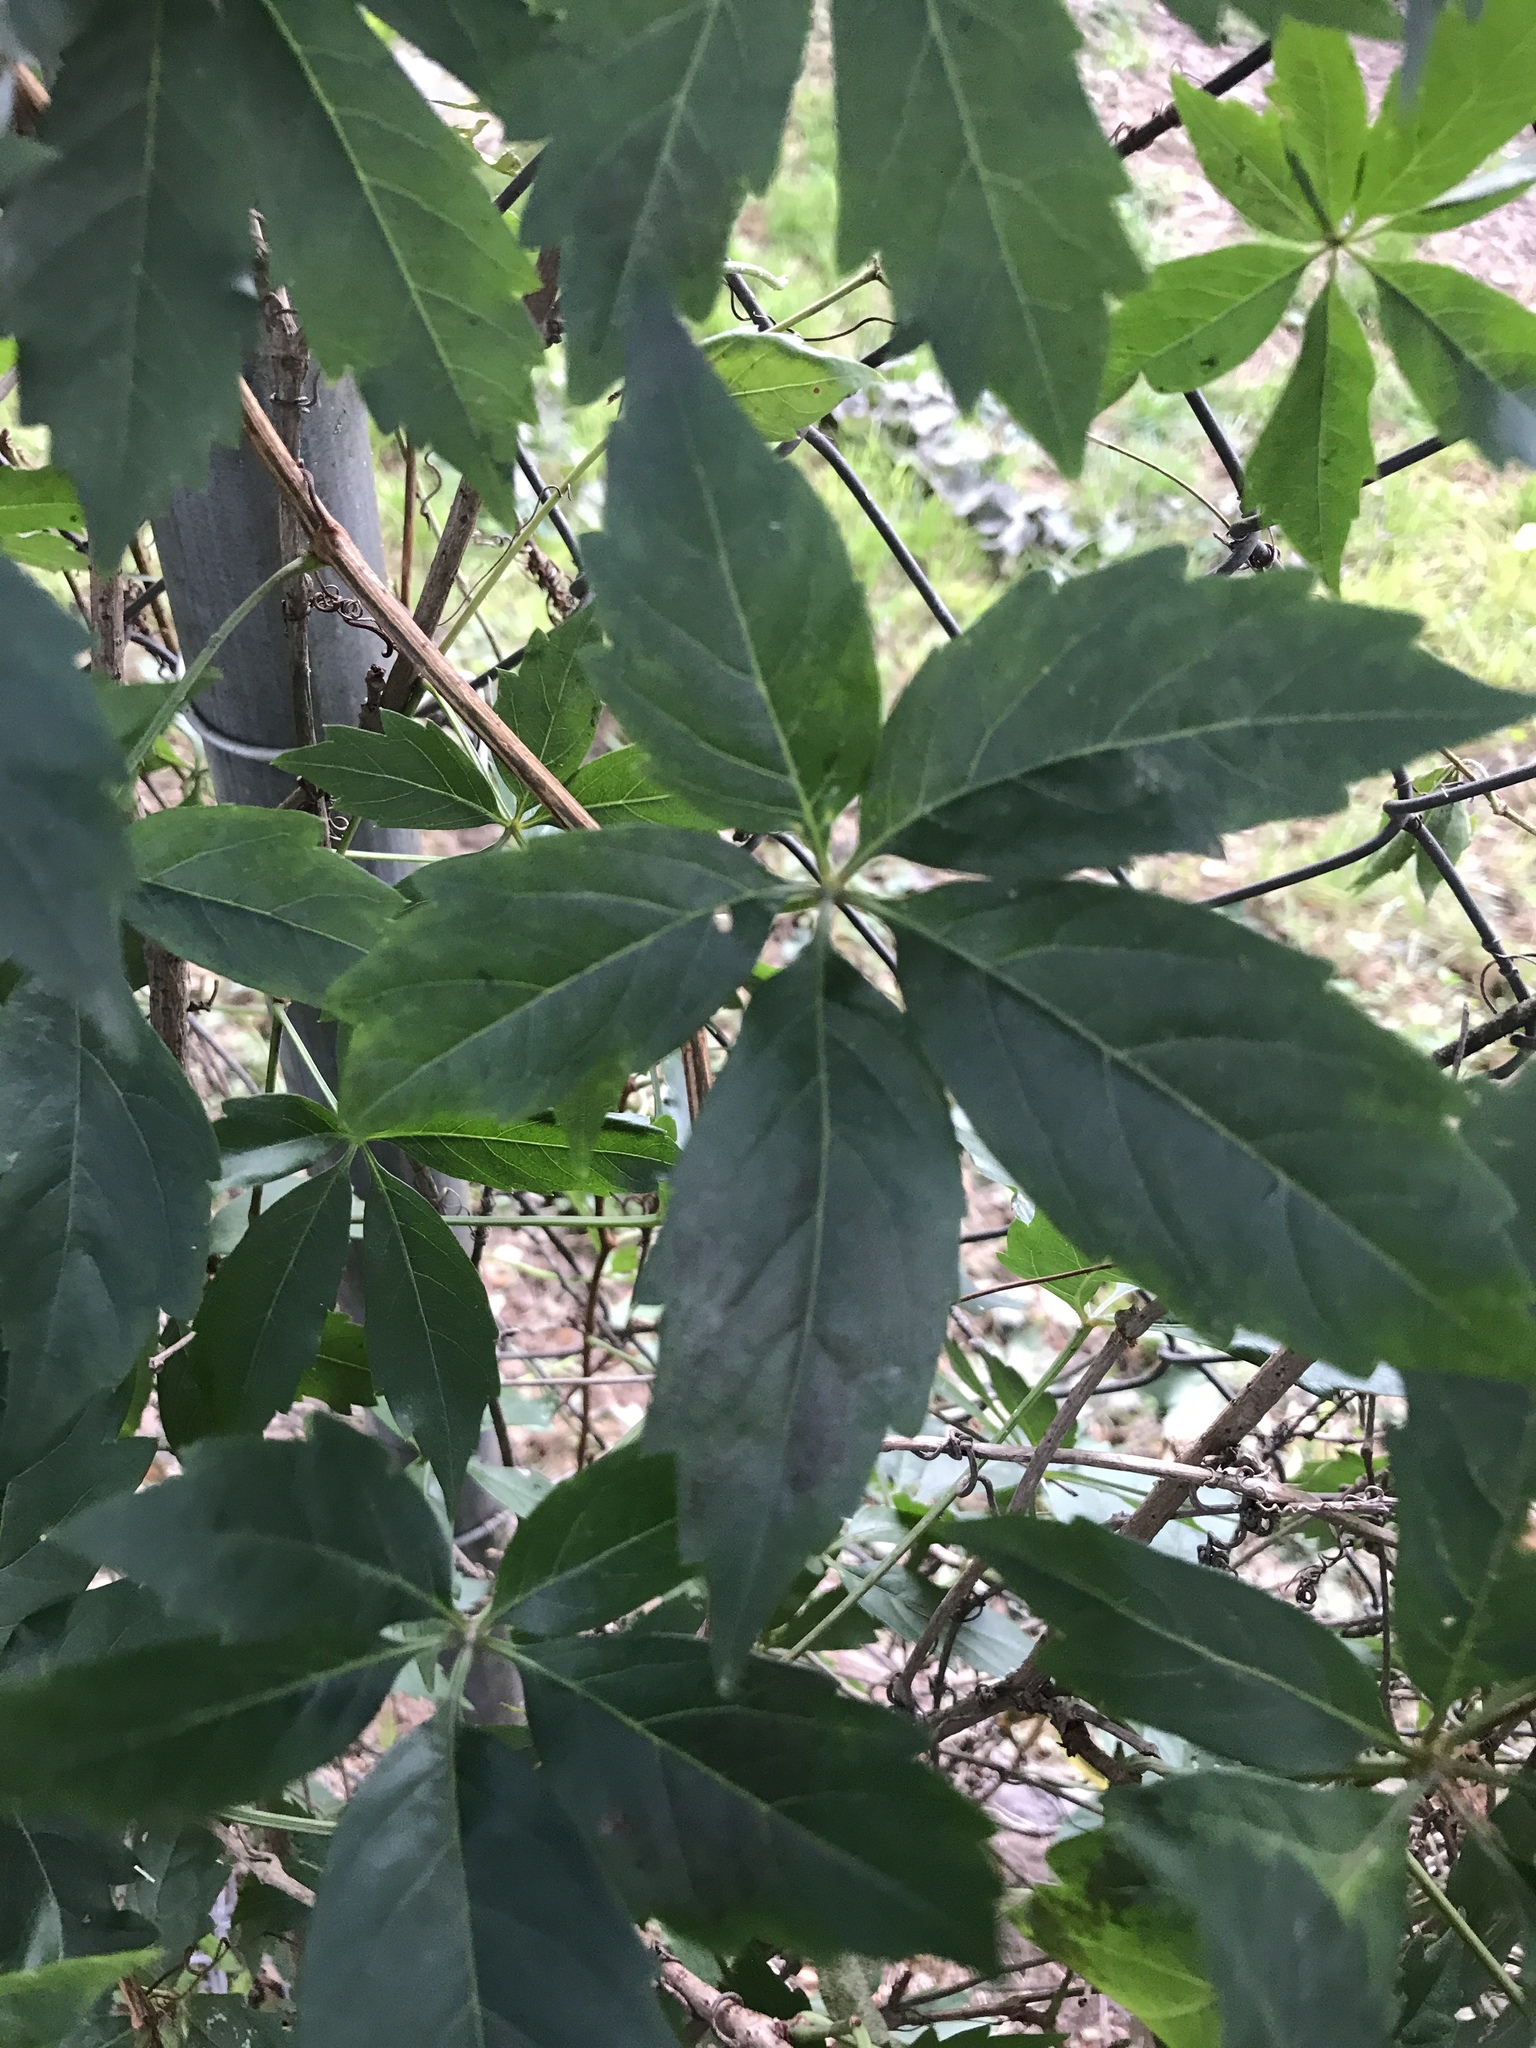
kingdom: Plantae
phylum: Tracheophyta
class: Magnoliopsida
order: Vitales
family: Vitaceae
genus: Parthenocissus
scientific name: Parthenocissus quinquefolia
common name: Virginia-creeper
